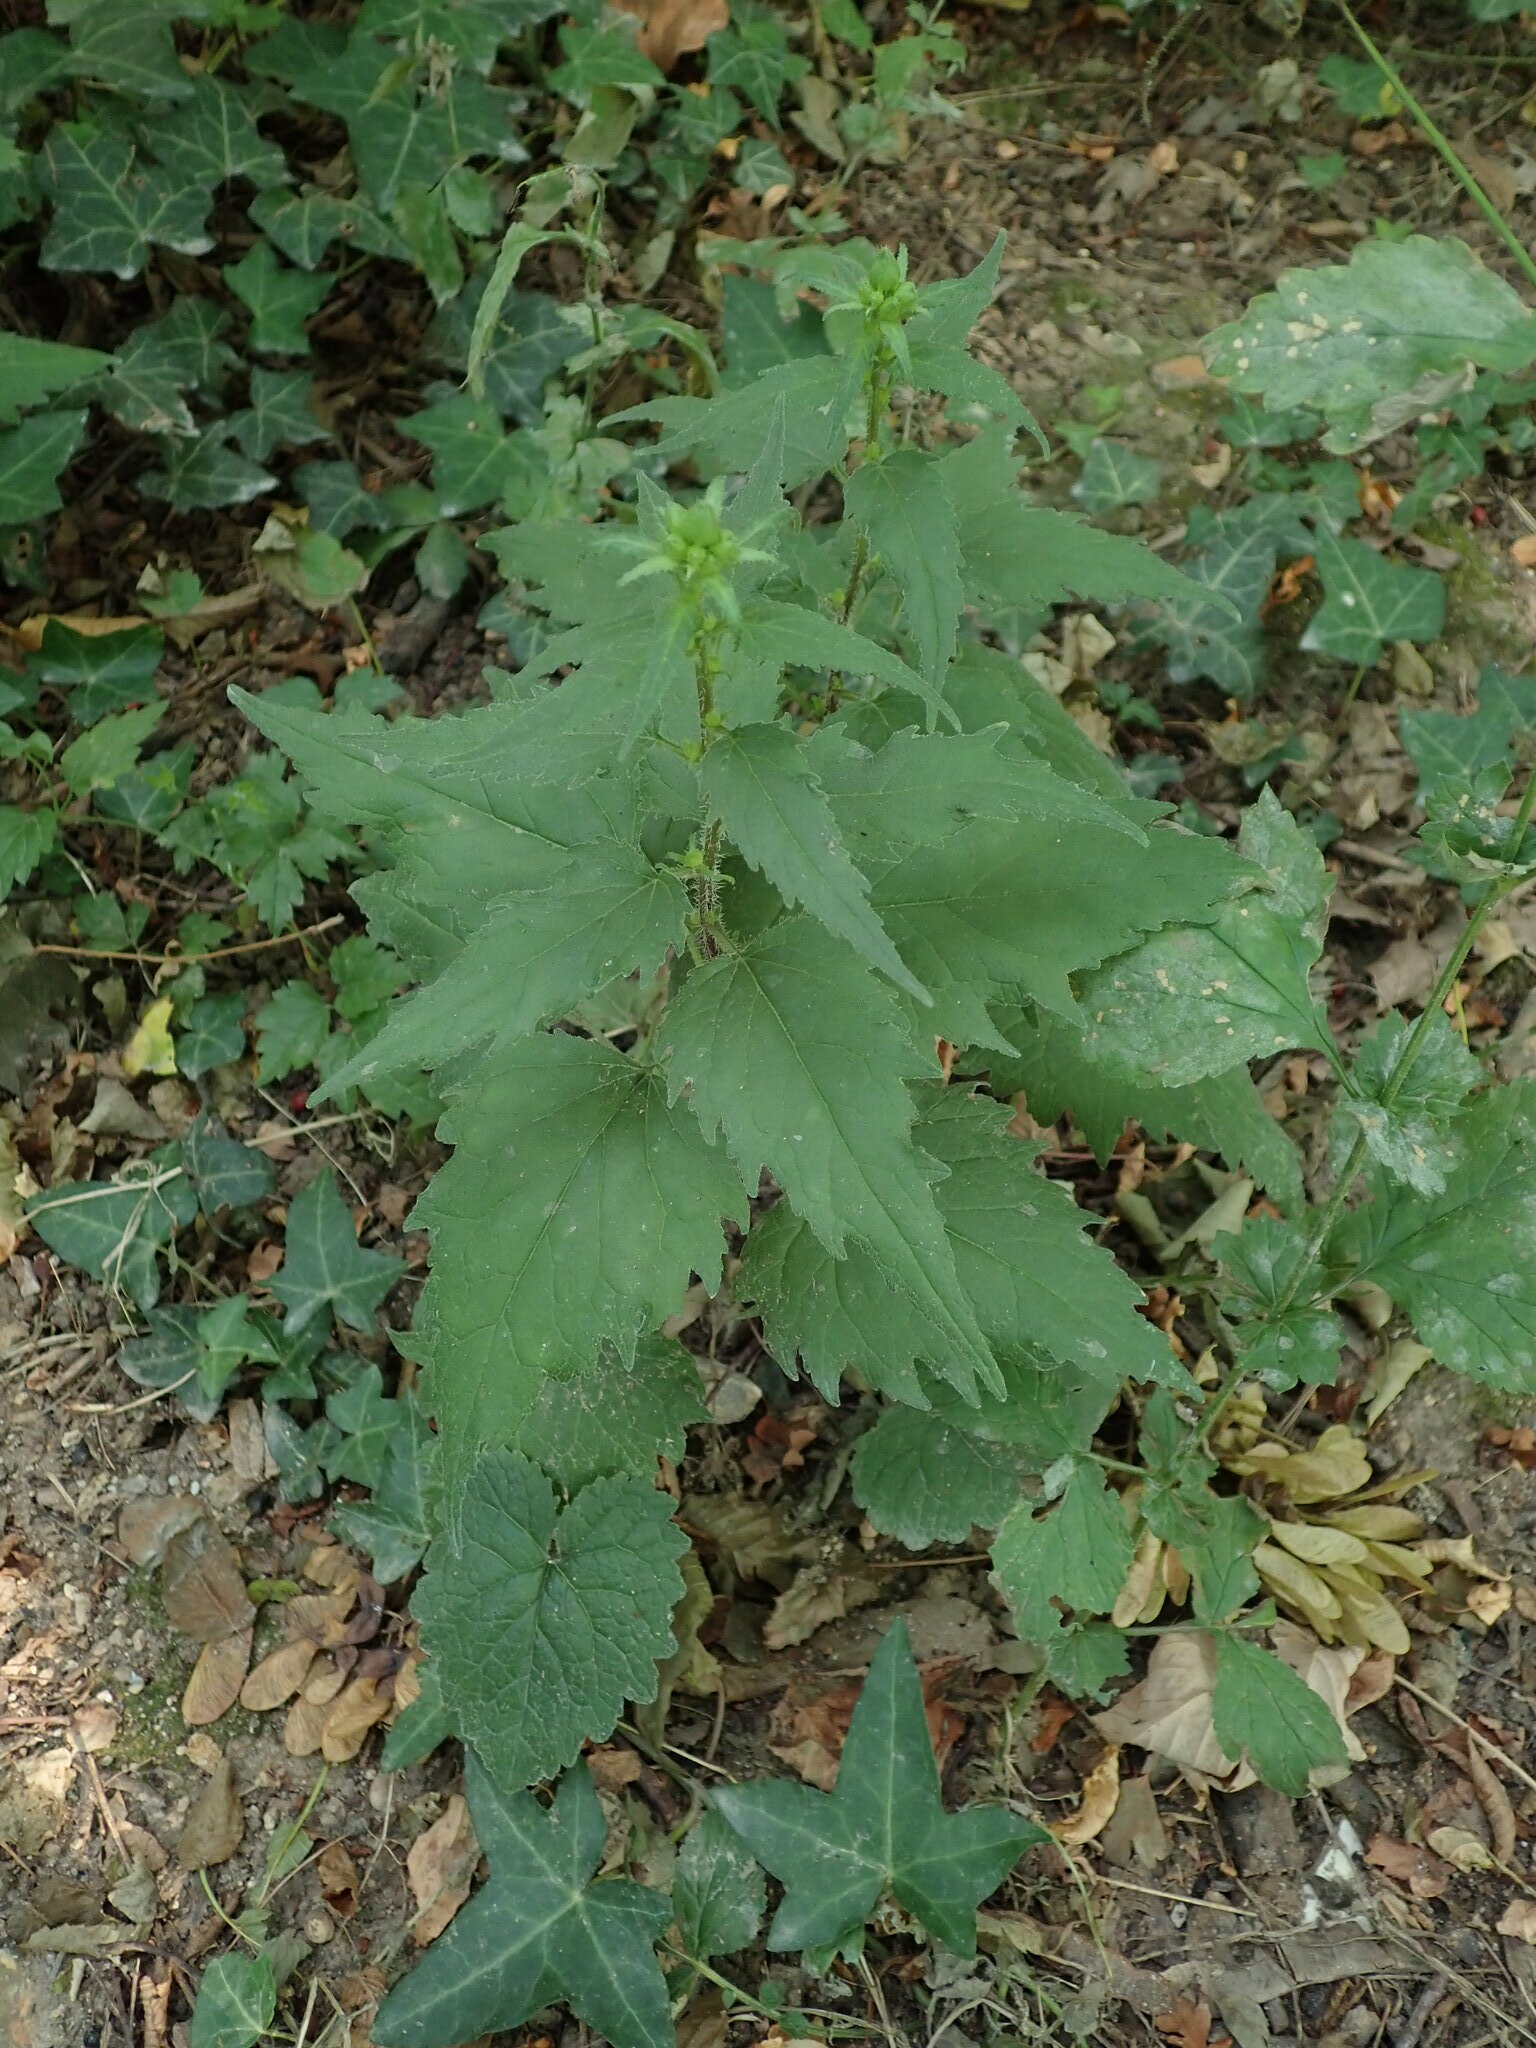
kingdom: Plantae
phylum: Tracheophyta
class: Magnoliopsida
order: Asterales
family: Campanulaceae
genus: Campanula
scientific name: Campanula trachelium
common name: Nettle-leaved bellflower
